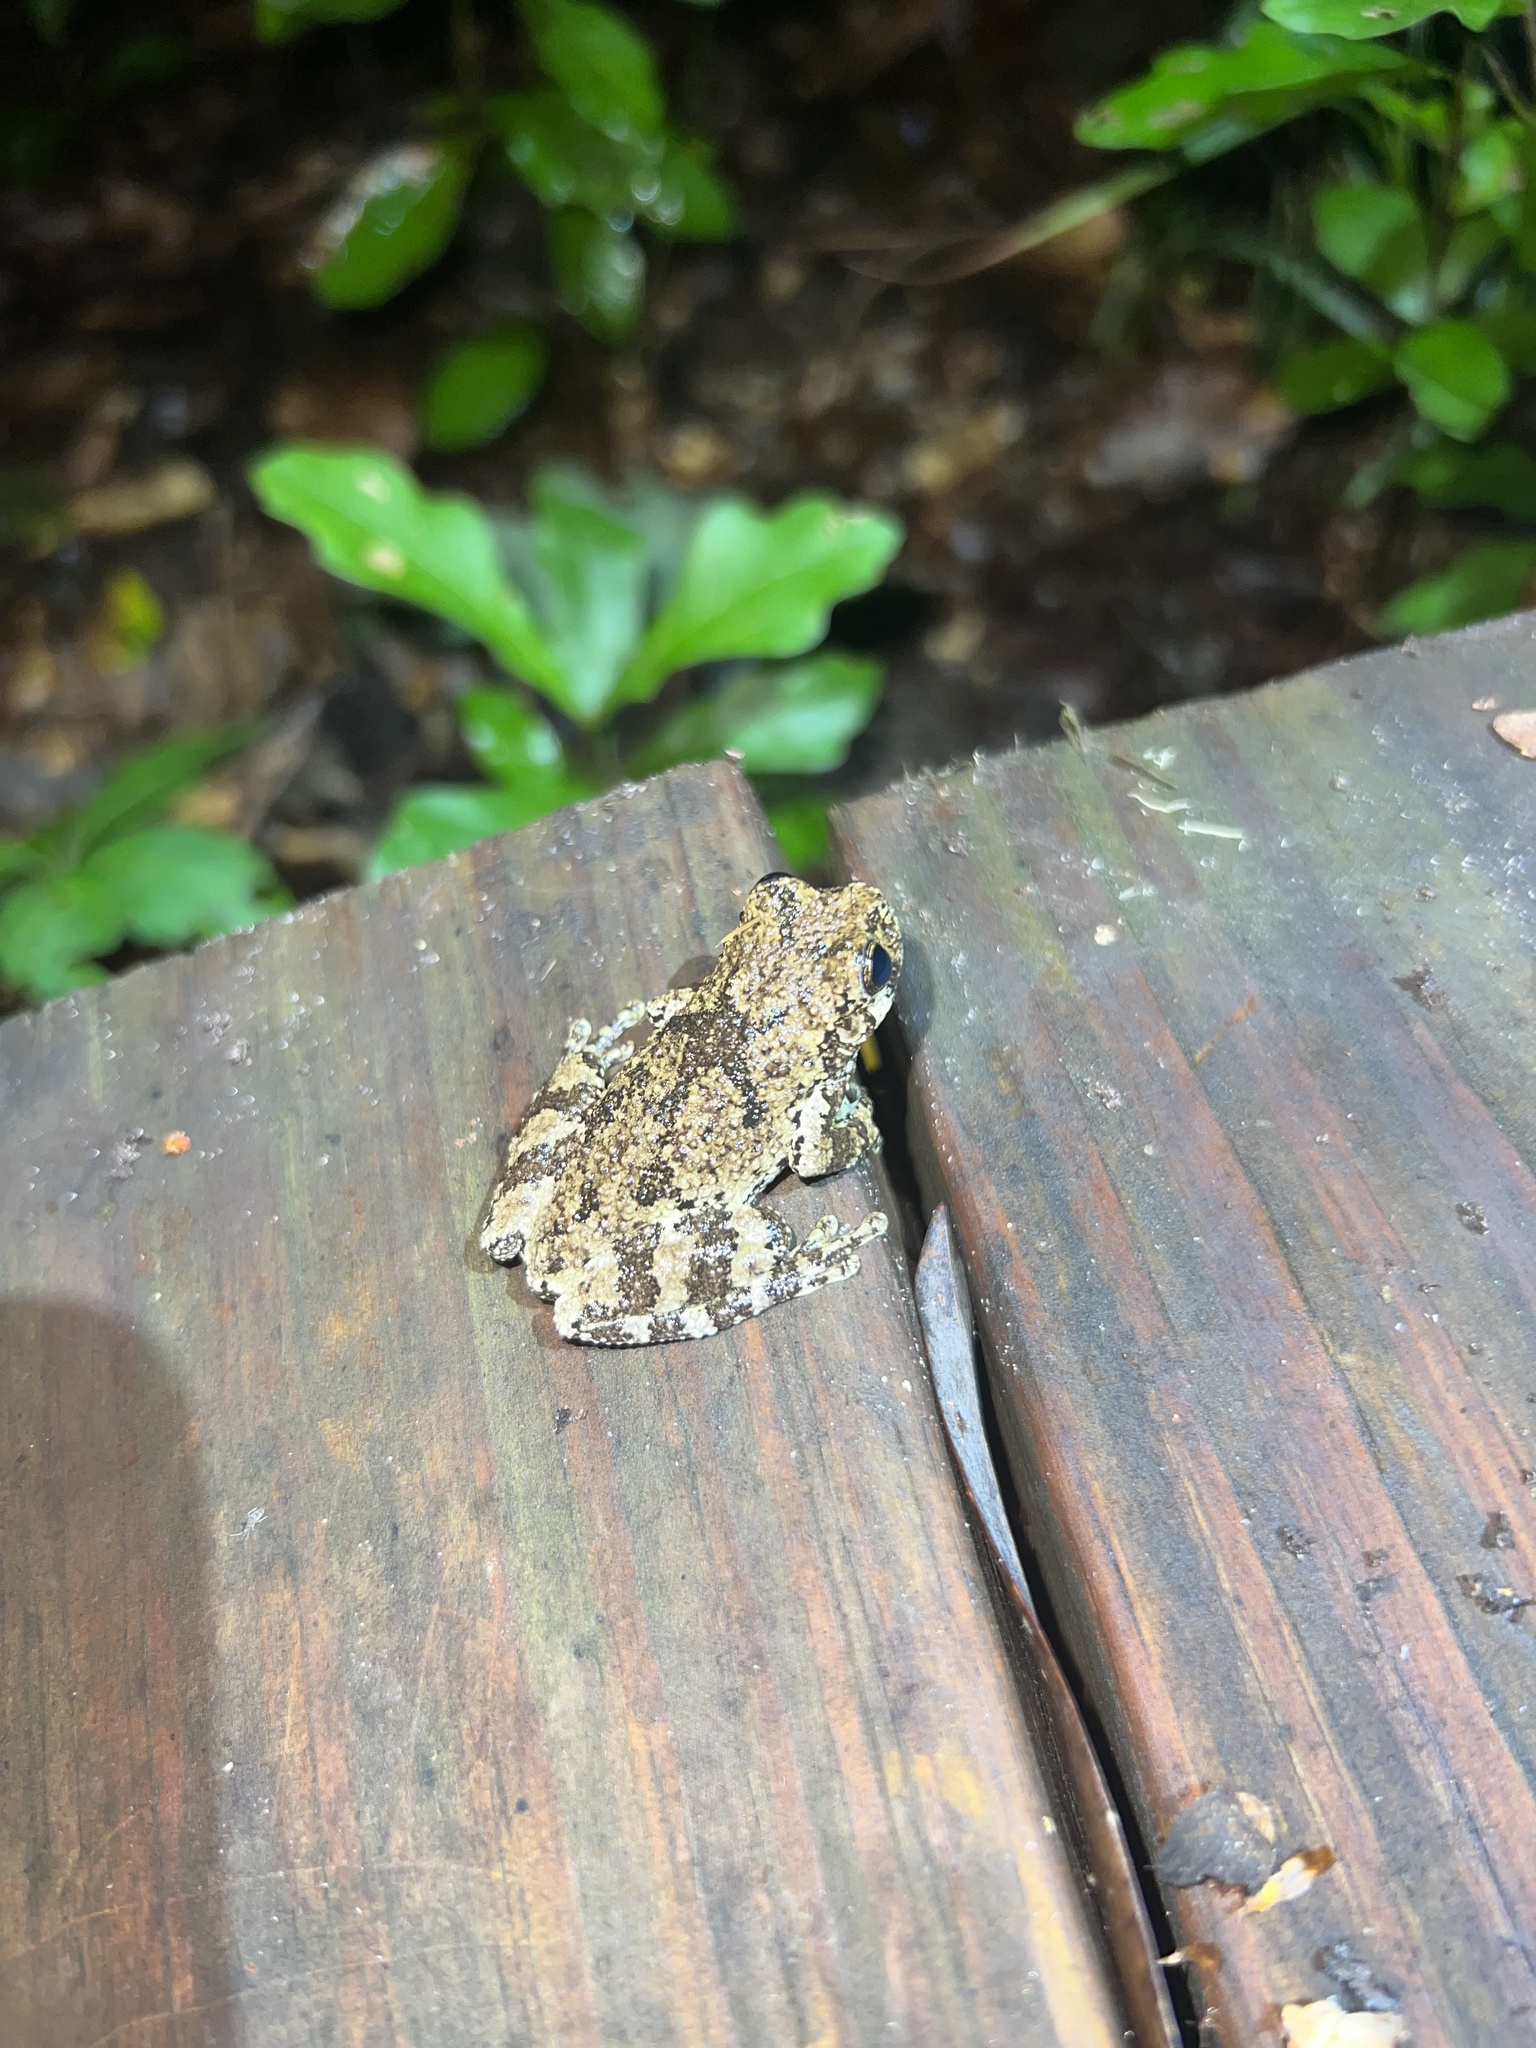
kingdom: Animalia
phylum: Chordata
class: Amphibia
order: Anura
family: Hylidae
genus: Dryophytes
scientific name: Dryophytes chrysoscelis
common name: Cope's gray treefrog
